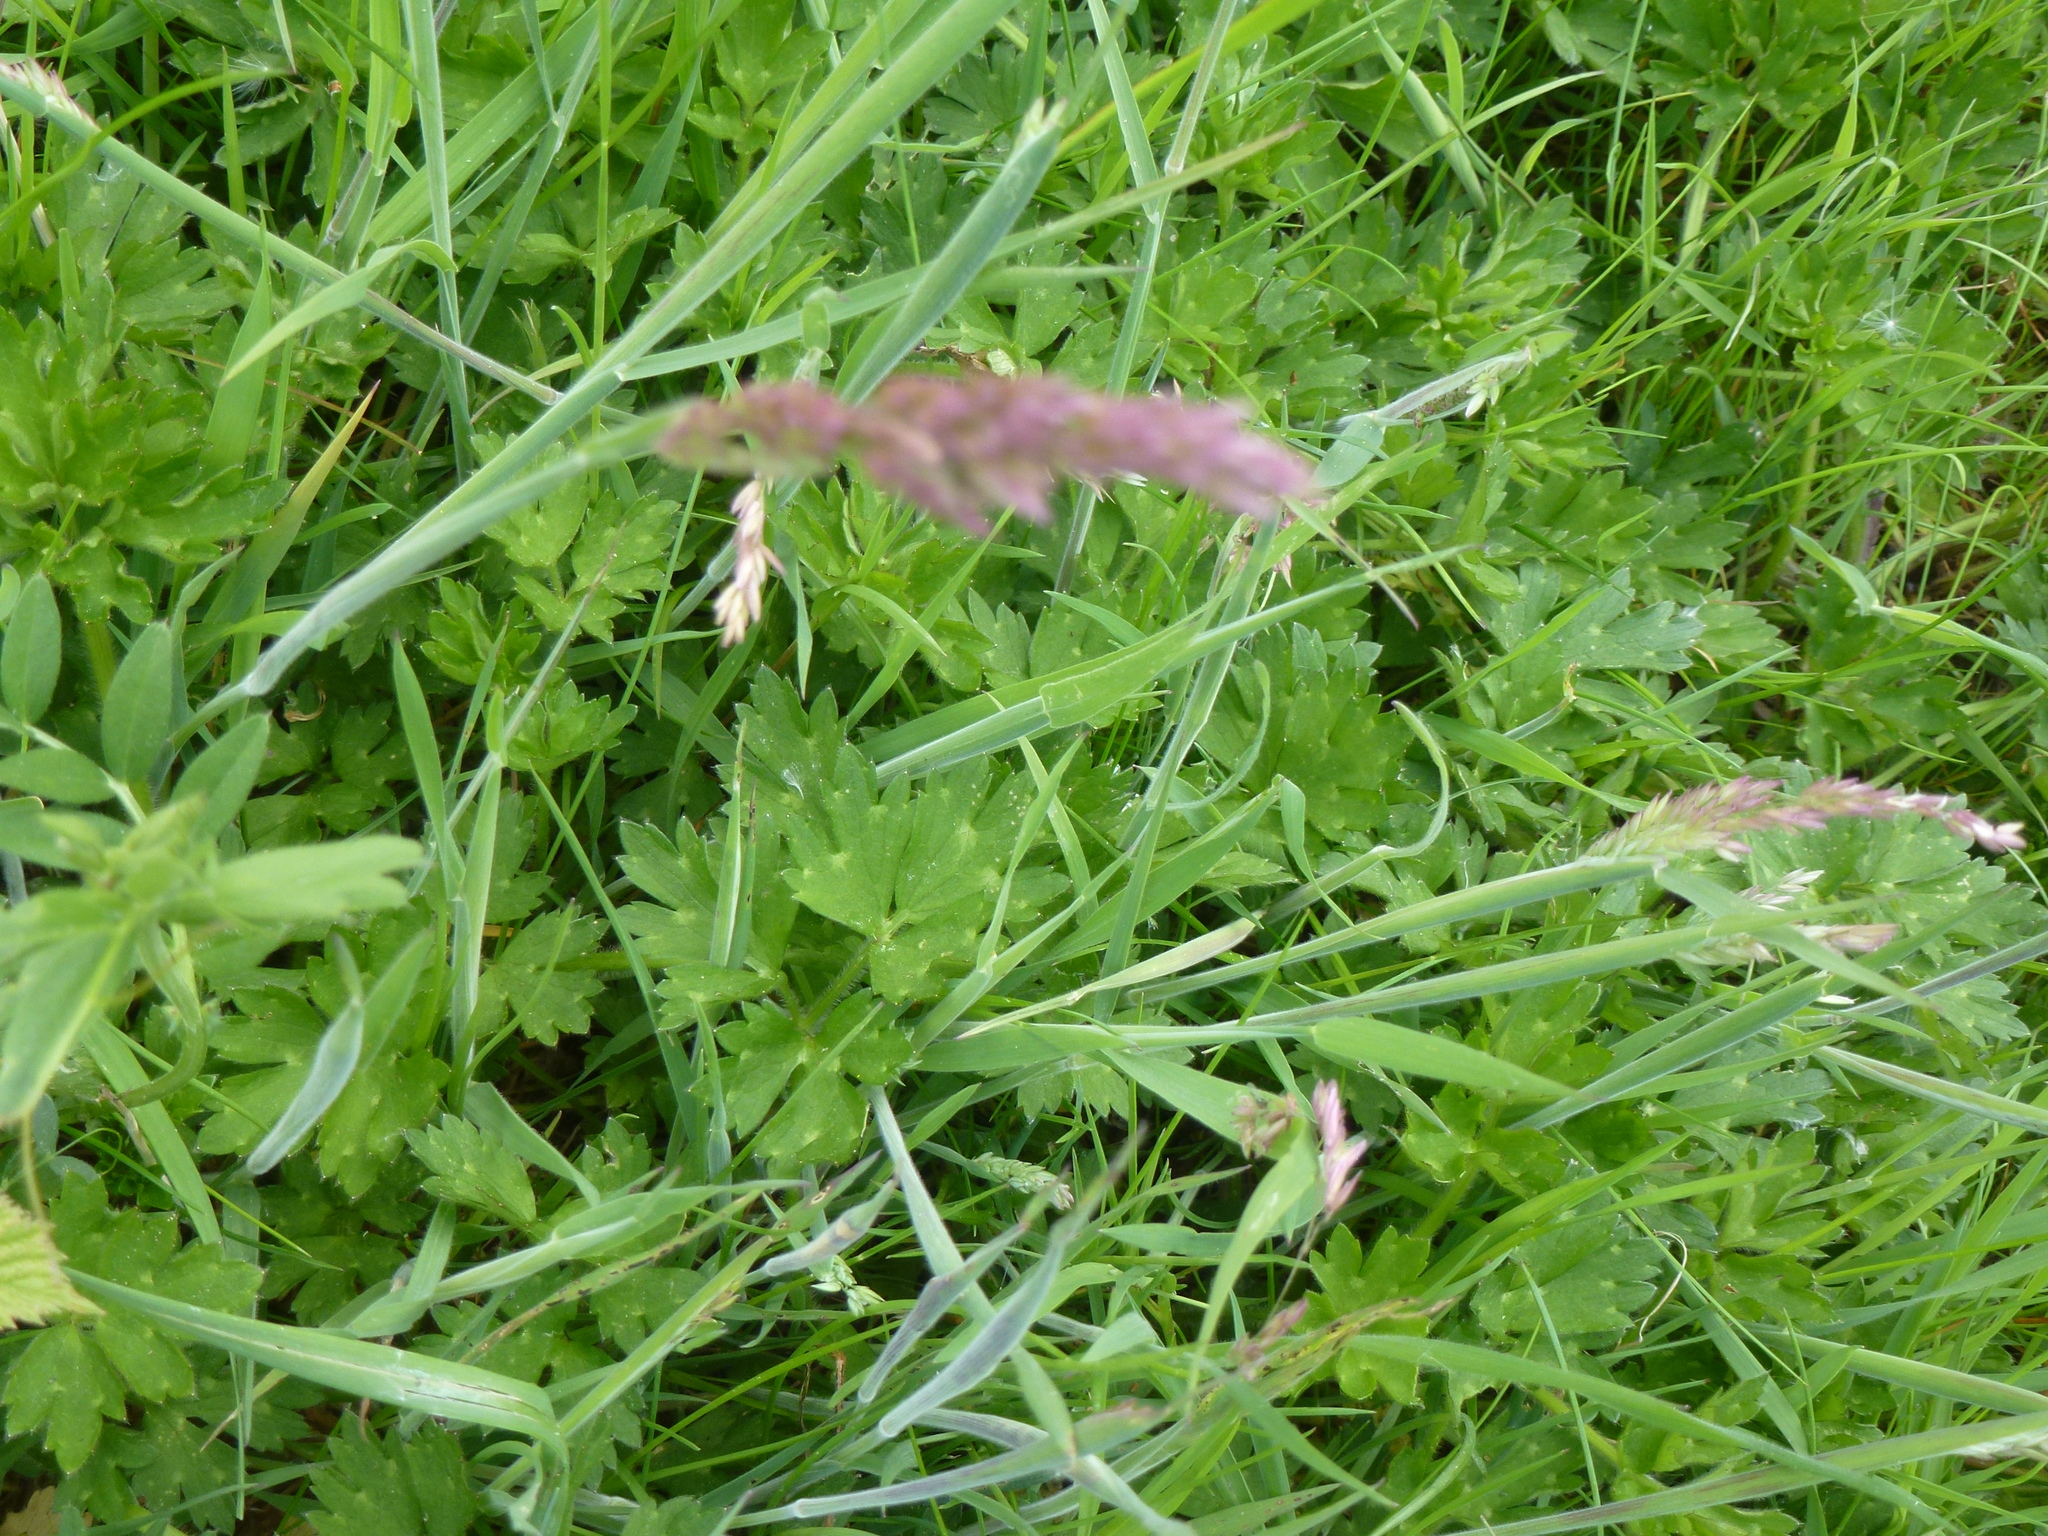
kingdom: Plantae
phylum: Tracheophyta
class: Liliopsida
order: Poales
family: Poaceae
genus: Holcus
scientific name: Holcus lanatus
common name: Yorkshire-fog
